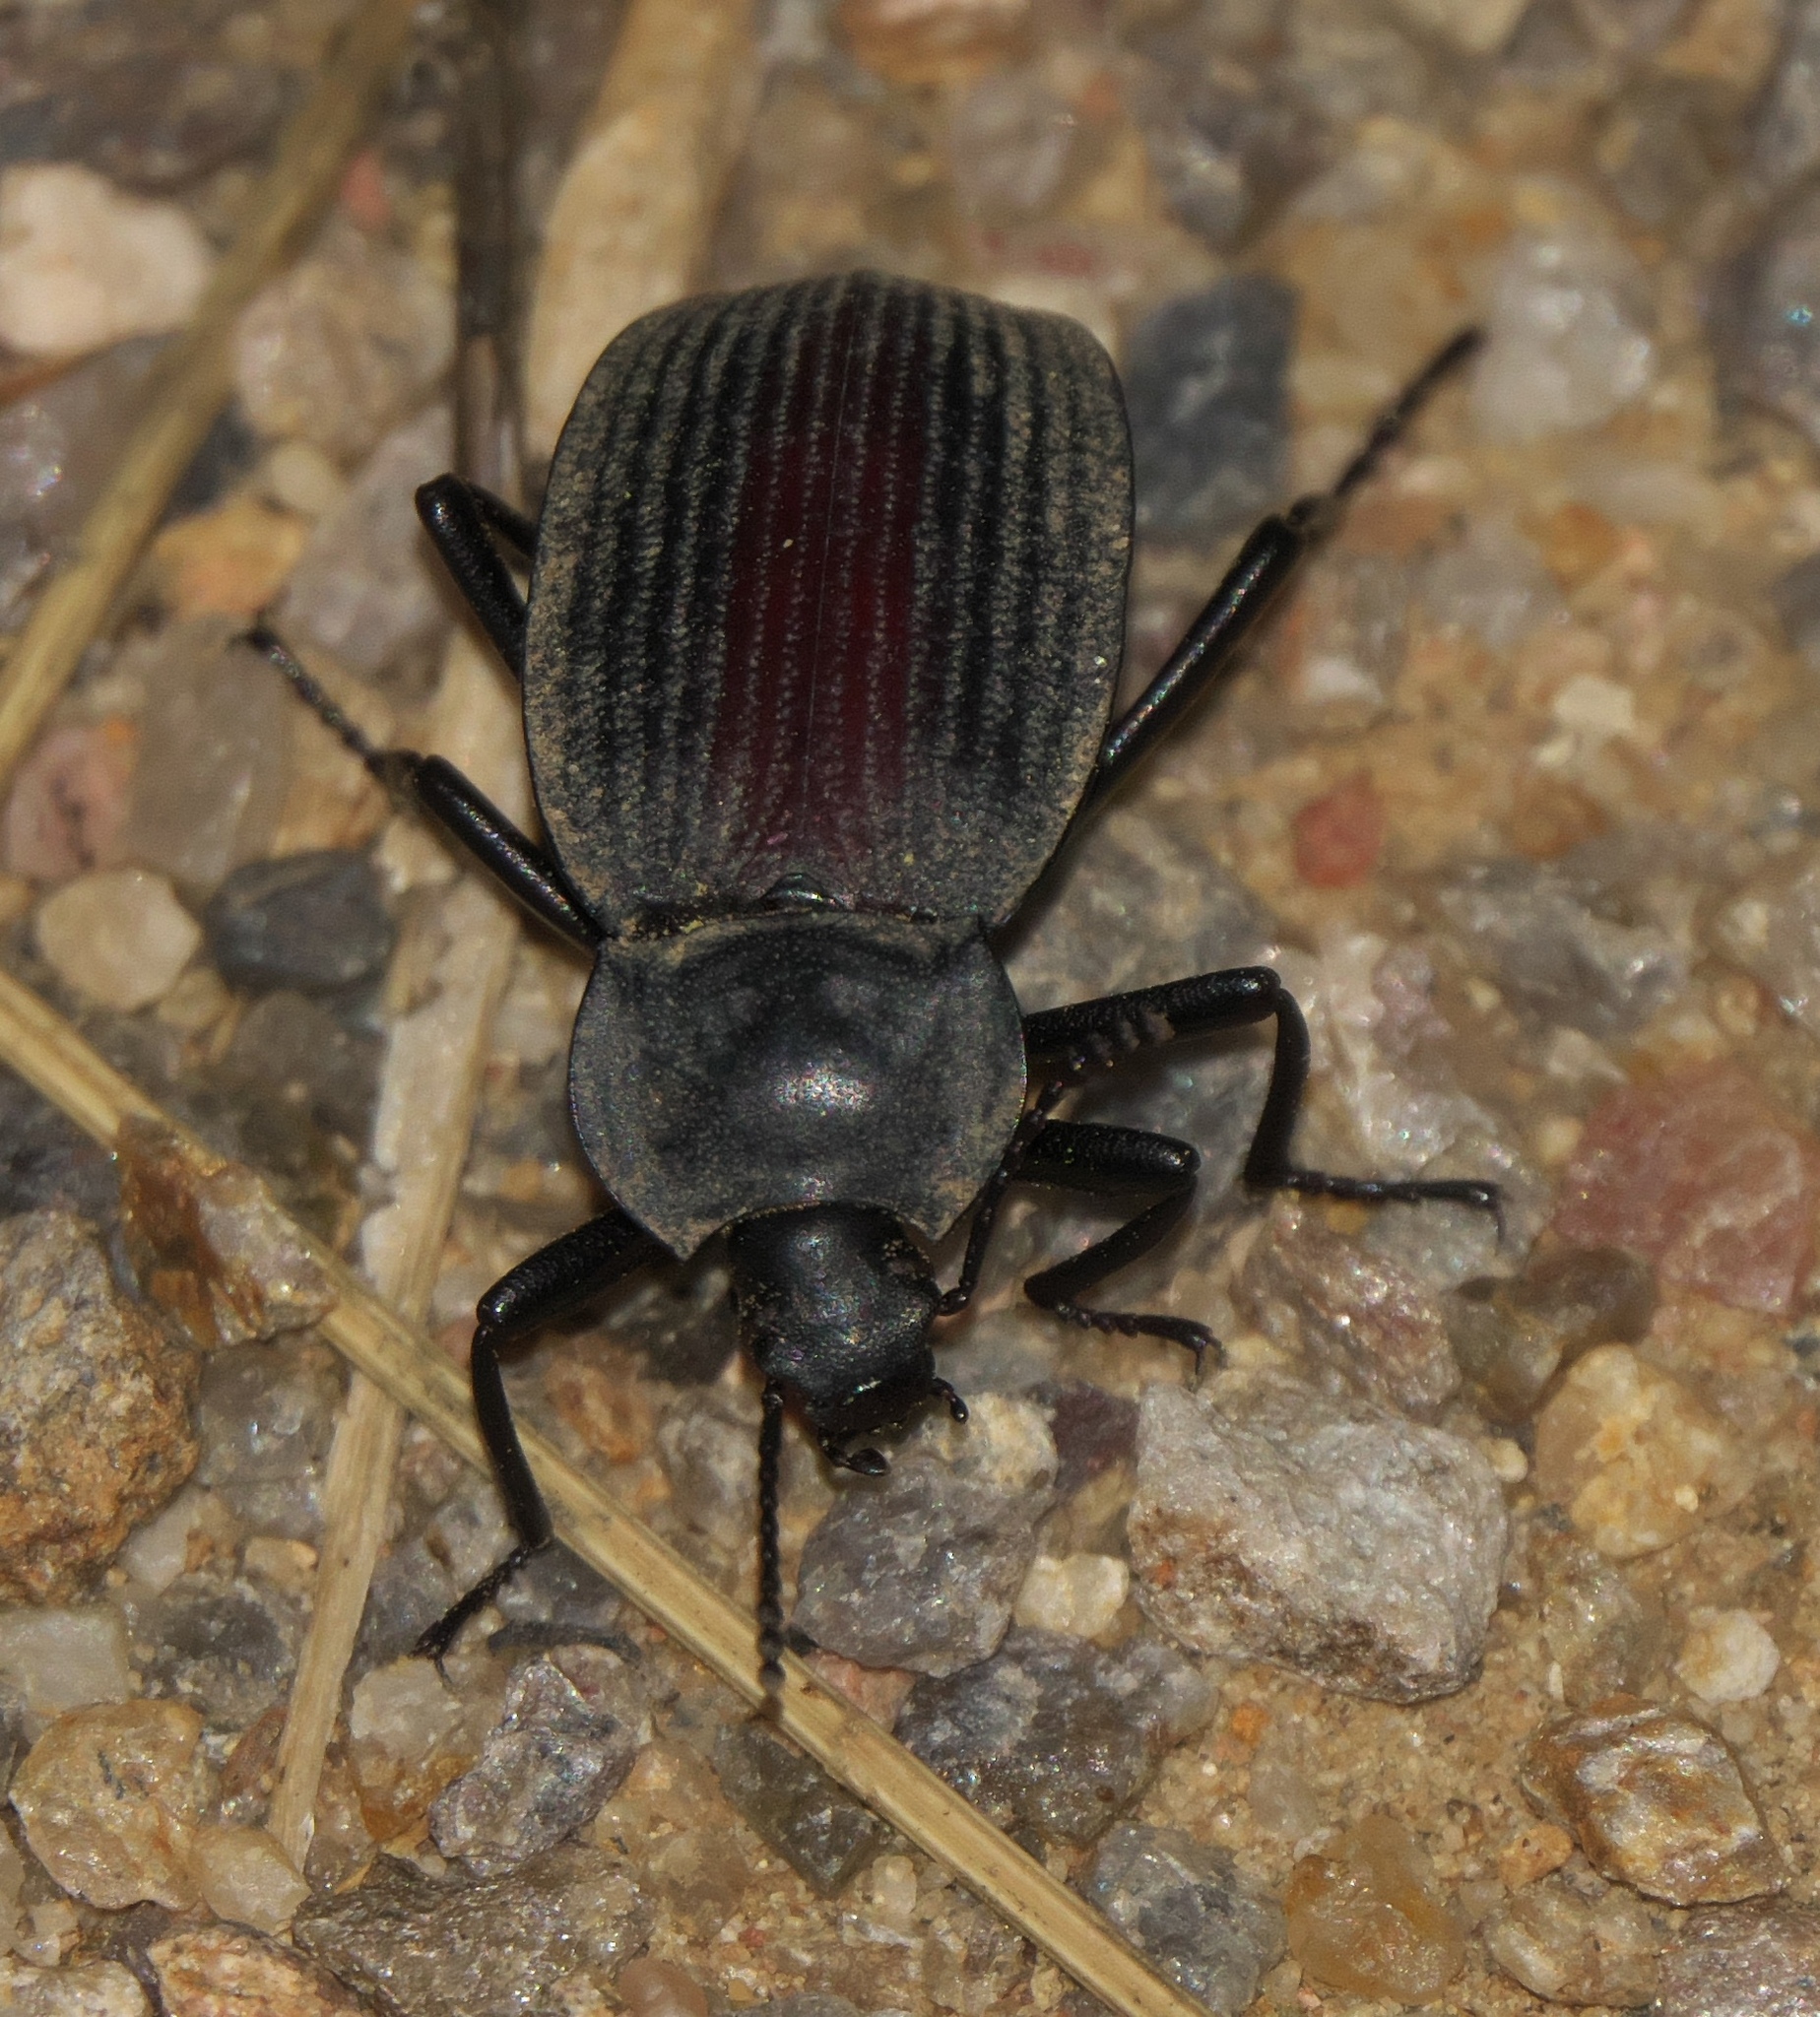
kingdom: Animalia
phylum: Arthropoda
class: Insecta
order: Coleoptera
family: Tenebrionidae
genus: Eleodes
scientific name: Eleodes suturalis
